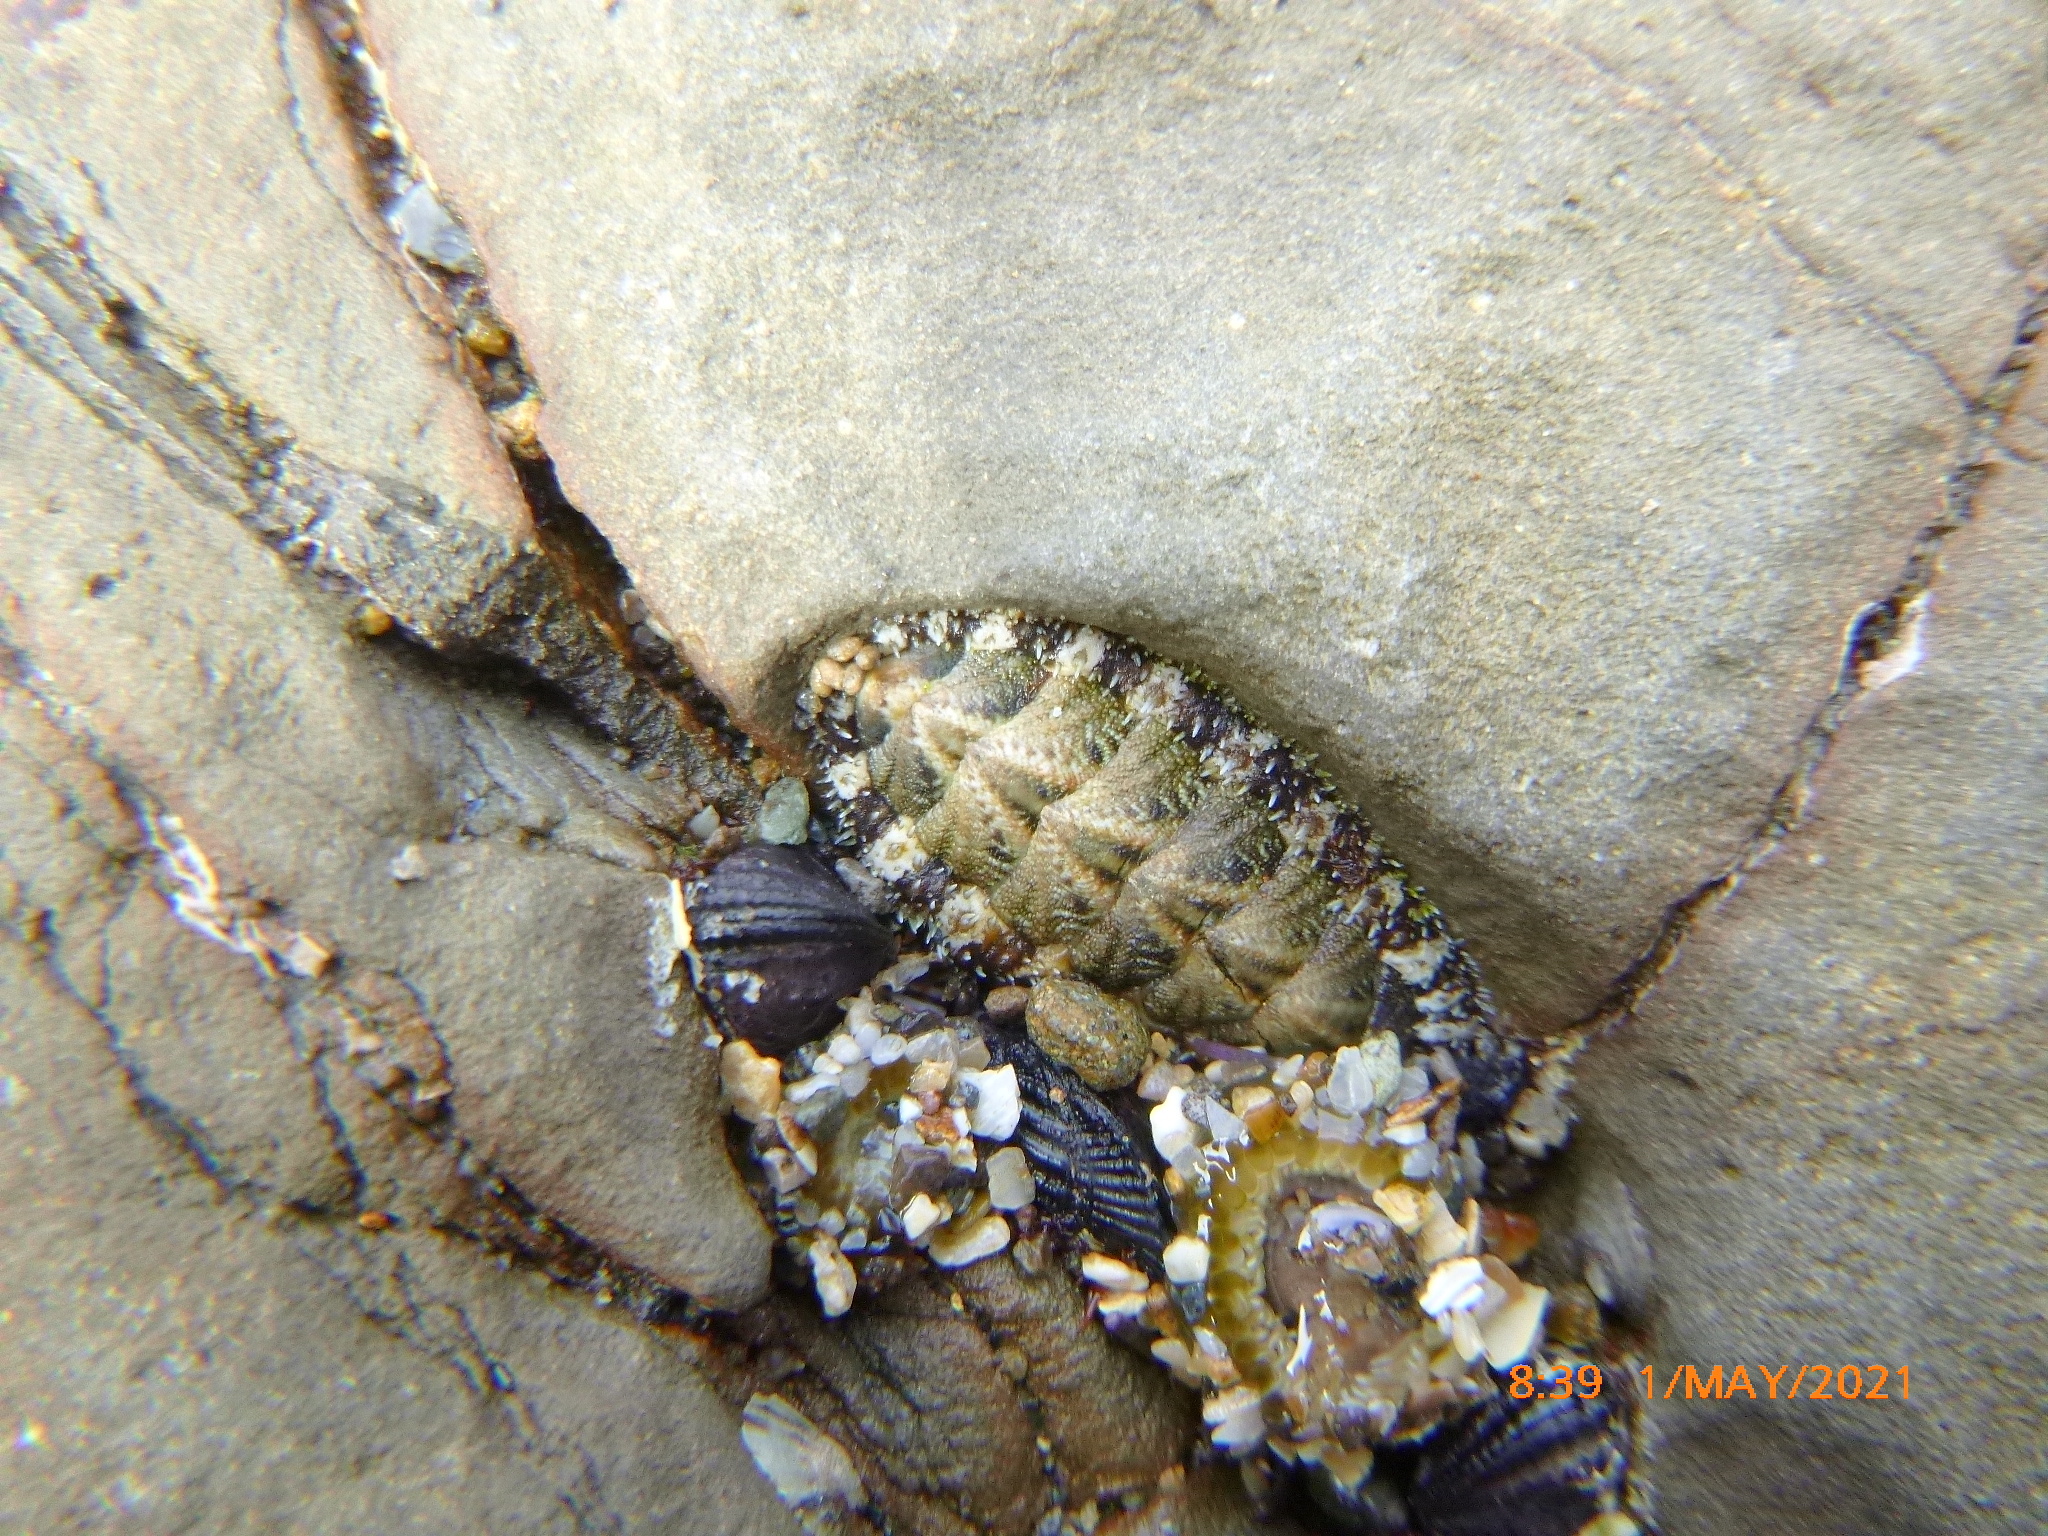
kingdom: Animalia
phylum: Mollusca
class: Polyplacophora
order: Chitonida
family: Tonicellidae
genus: Nuttallina
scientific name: Nuttallina californica
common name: California nuttall chiton
